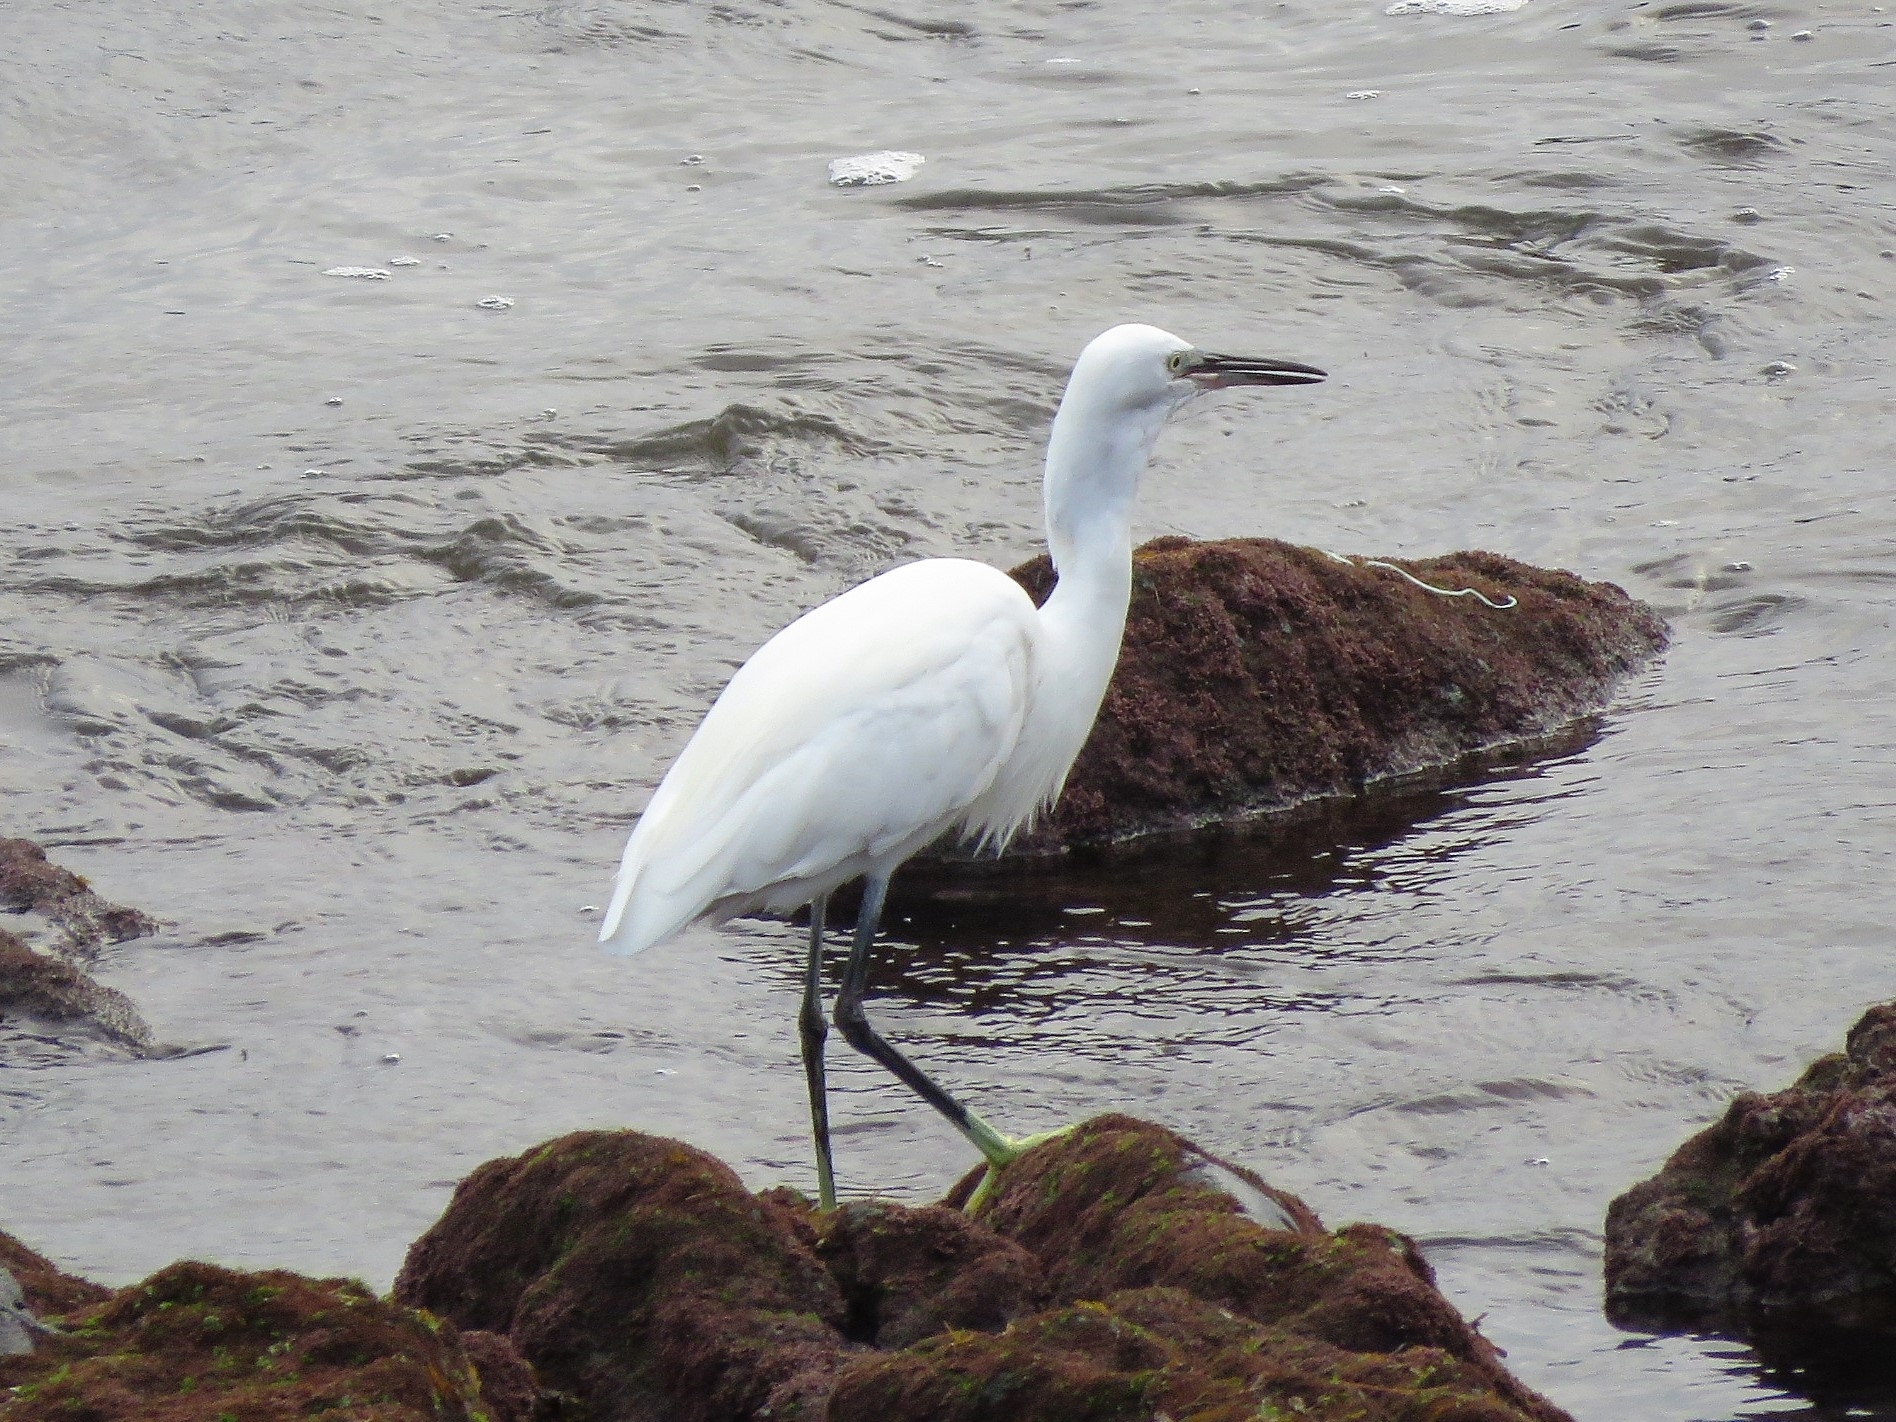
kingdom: Animalia
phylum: Chordata
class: Aves
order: Pelecaniformes
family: Ardeidae
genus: Egretta
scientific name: Egretta garzetta
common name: Little egret
